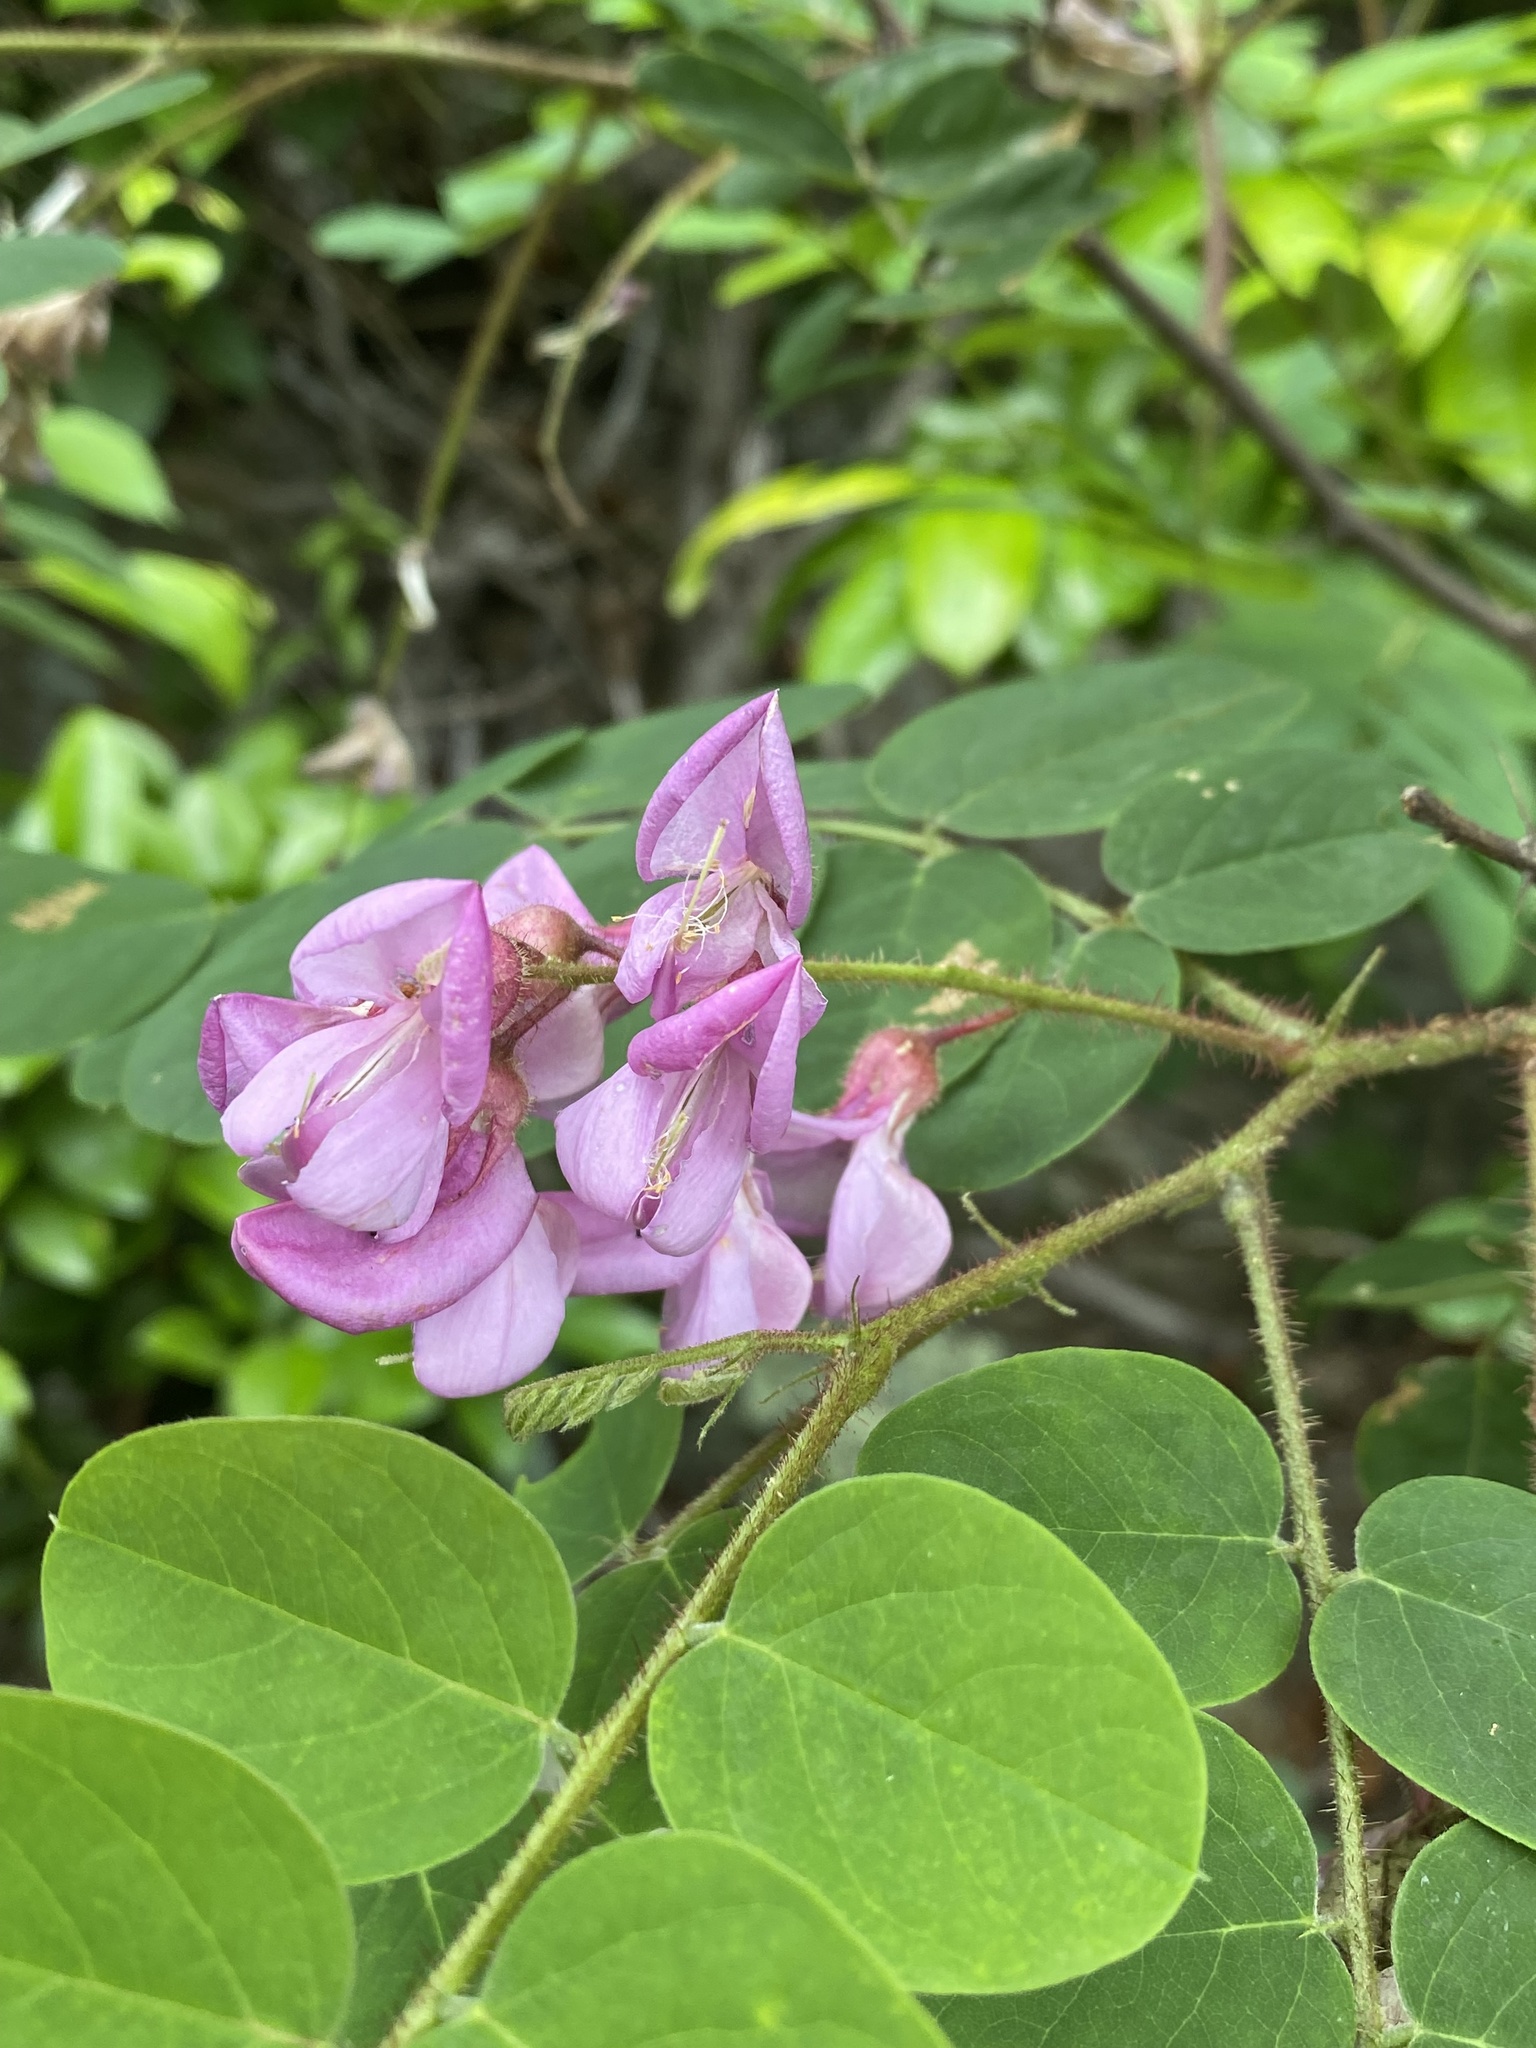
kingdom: Plantae
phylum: Tracheophyta
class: Magnoliopsida
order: Fabales
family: Fabaceae
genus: Robinia
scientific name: Robinia hispida
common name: Bristly locust
